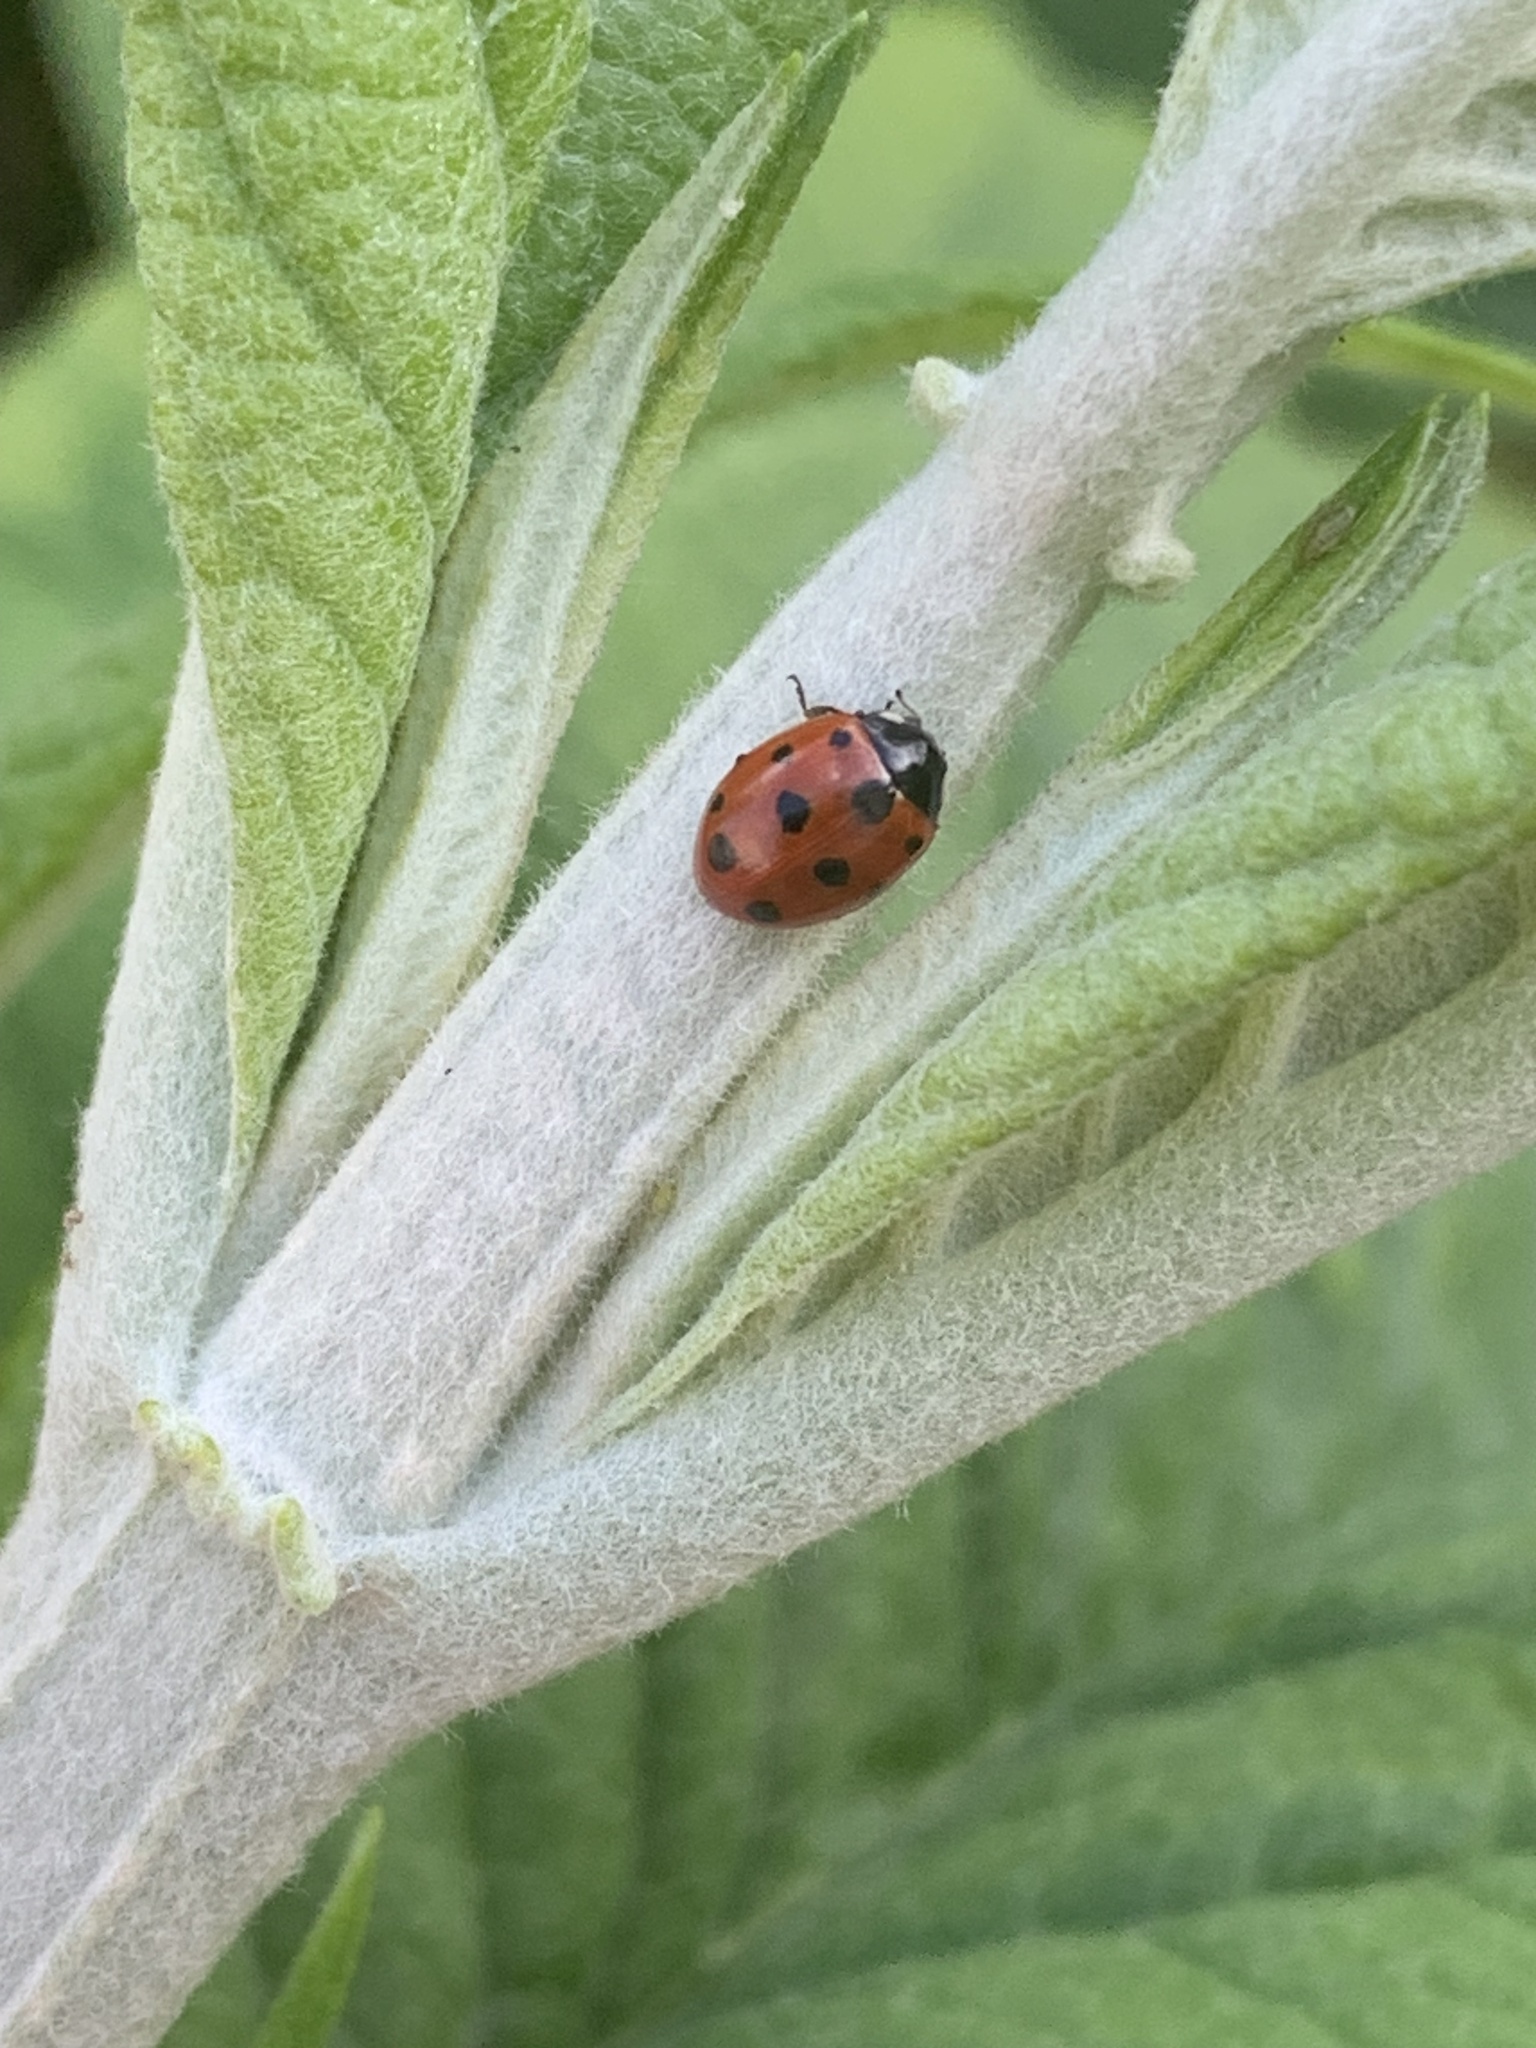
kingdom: Animalia
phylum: Arthropoda
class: Insecta
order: Coleoptera
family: Coccinellidae
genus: Coccinella
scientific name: Coccinella undecimpunctata
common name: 11-spot ladybird
